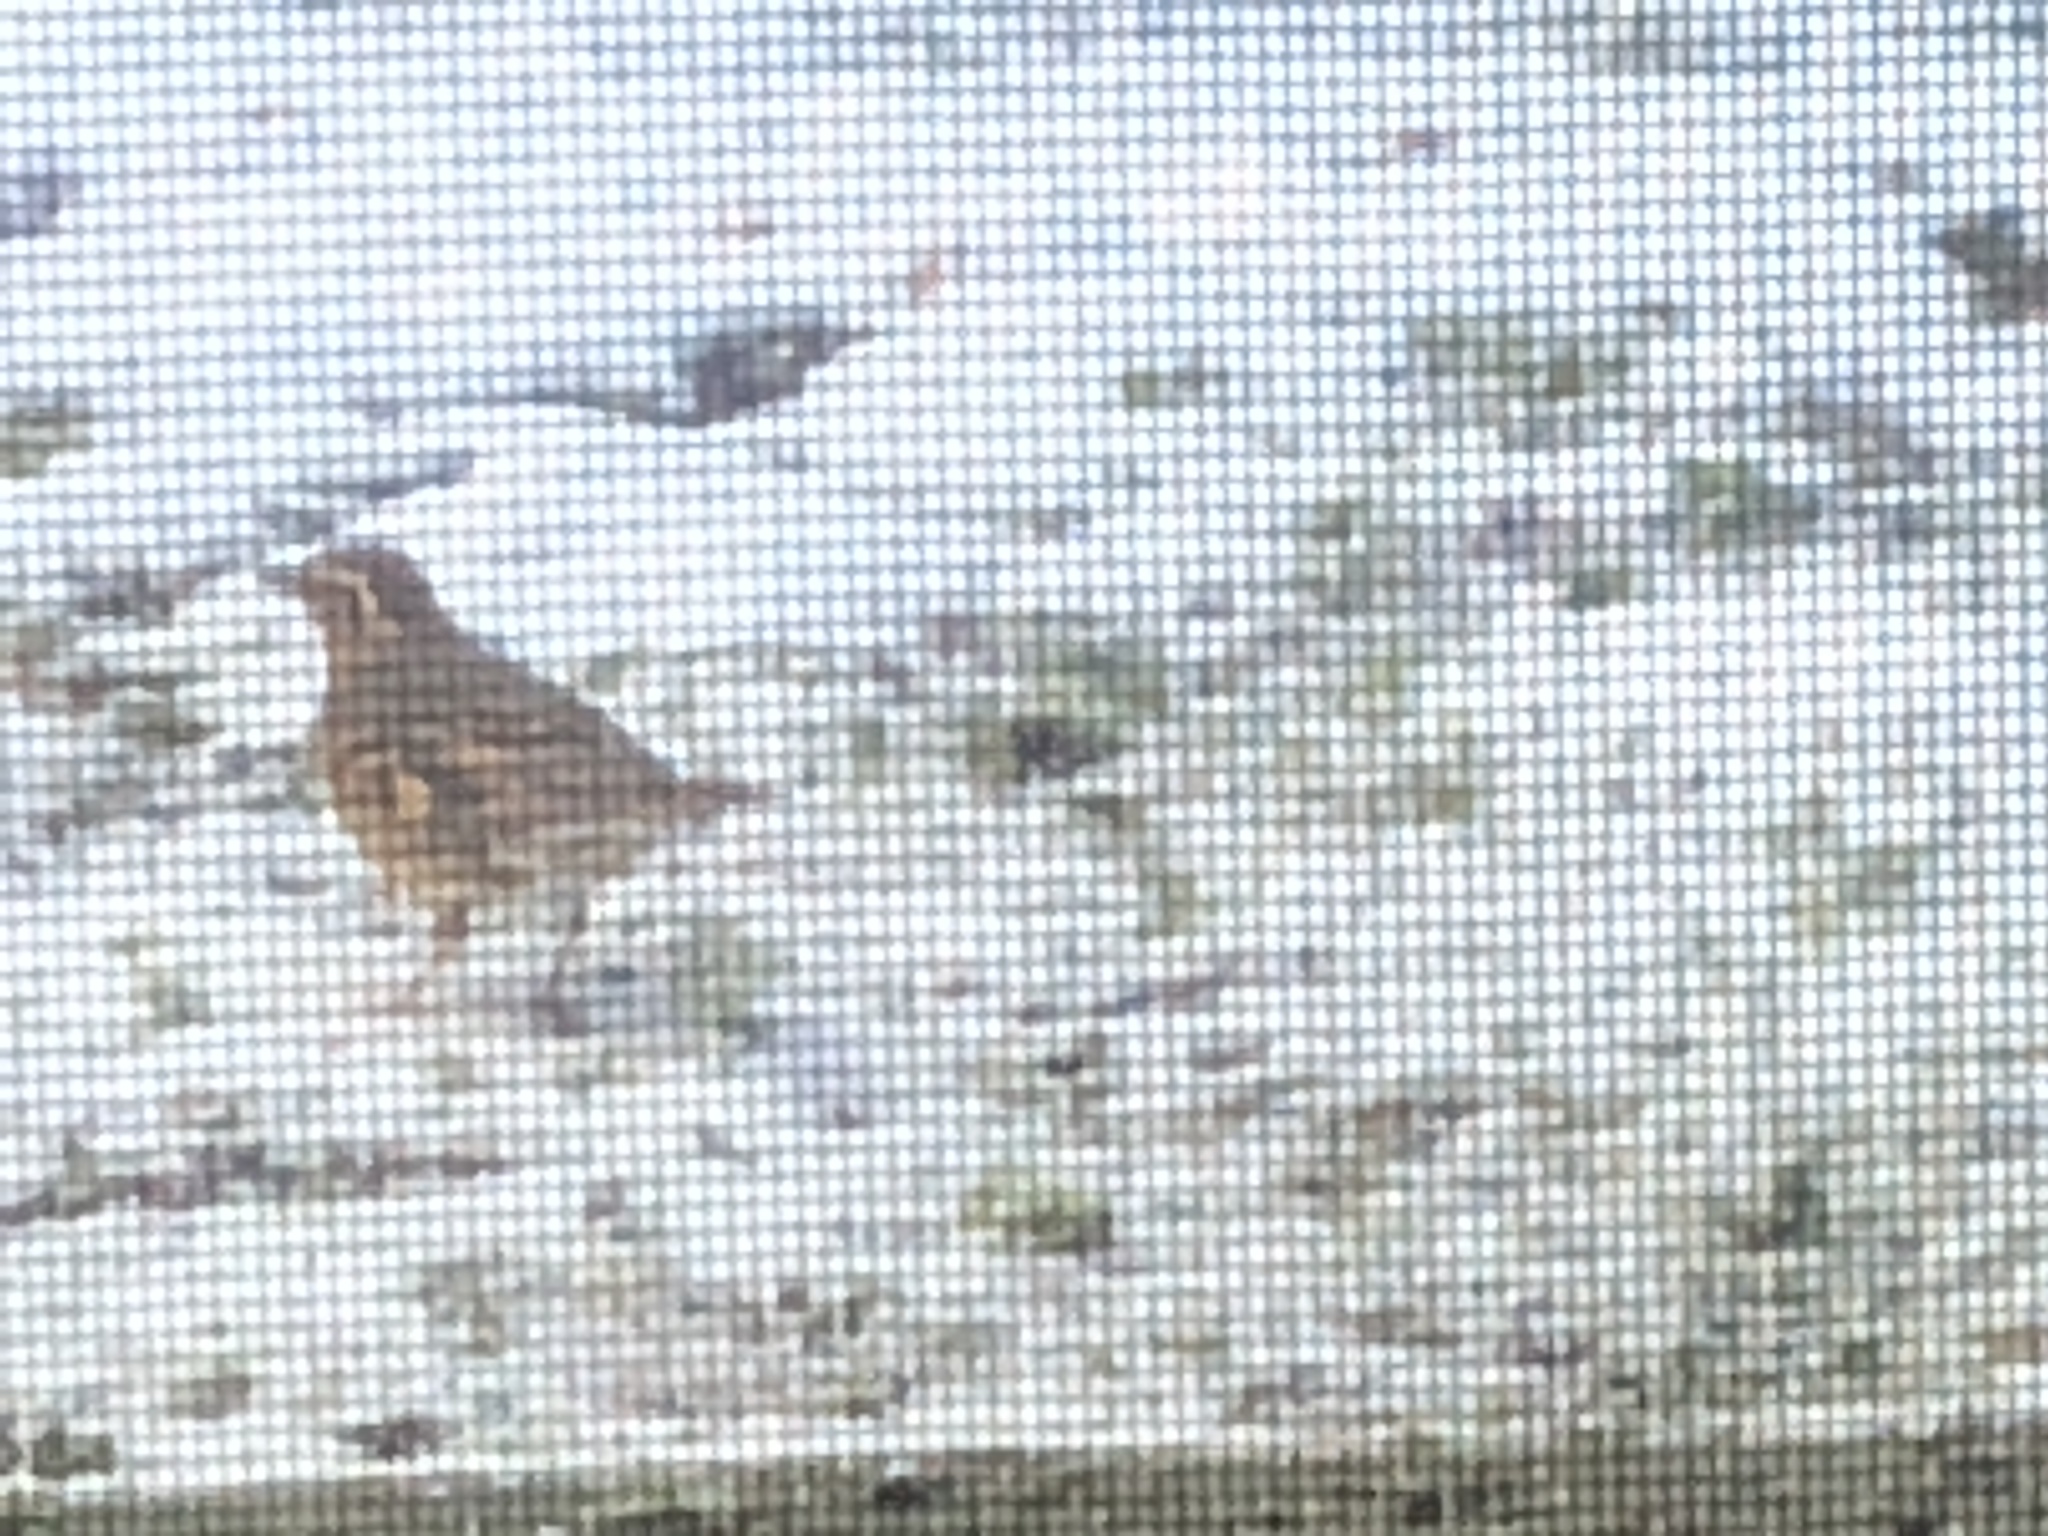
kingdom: Animalia
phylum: Chordata
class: Aves
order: Passeriformes
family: Turdidae
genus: Ixoreus
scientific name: Ixoreus naevius
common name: Varied thrush
